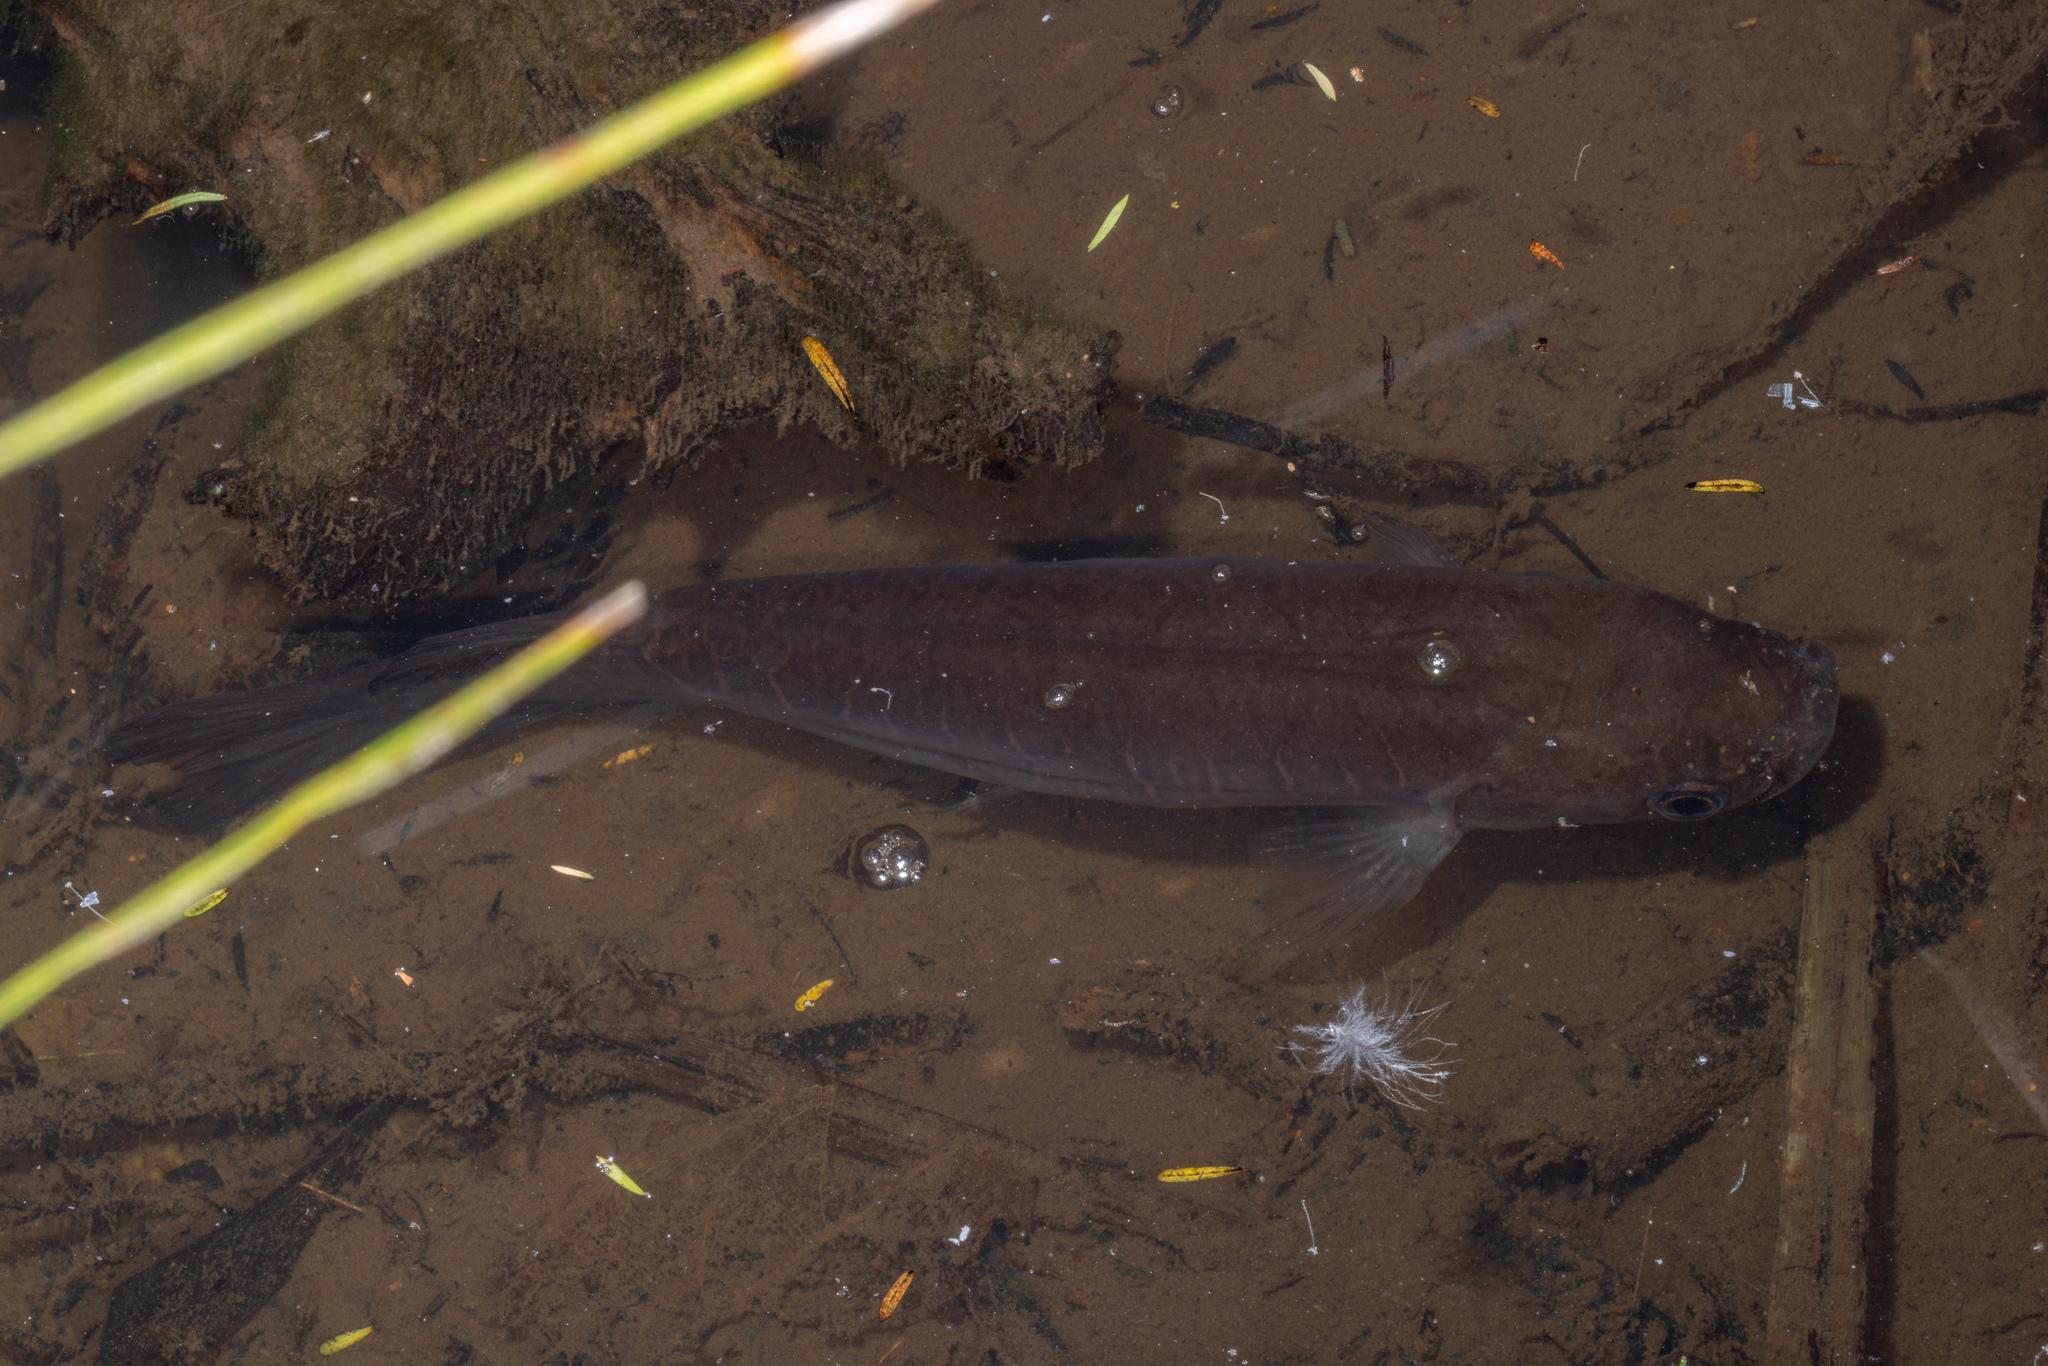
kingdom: Animalia
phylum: Chordata
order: Osmeriformes
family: Galaxiidae
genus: Galaxias
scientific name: Galaxias fasciatus
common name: Banded kokopu
